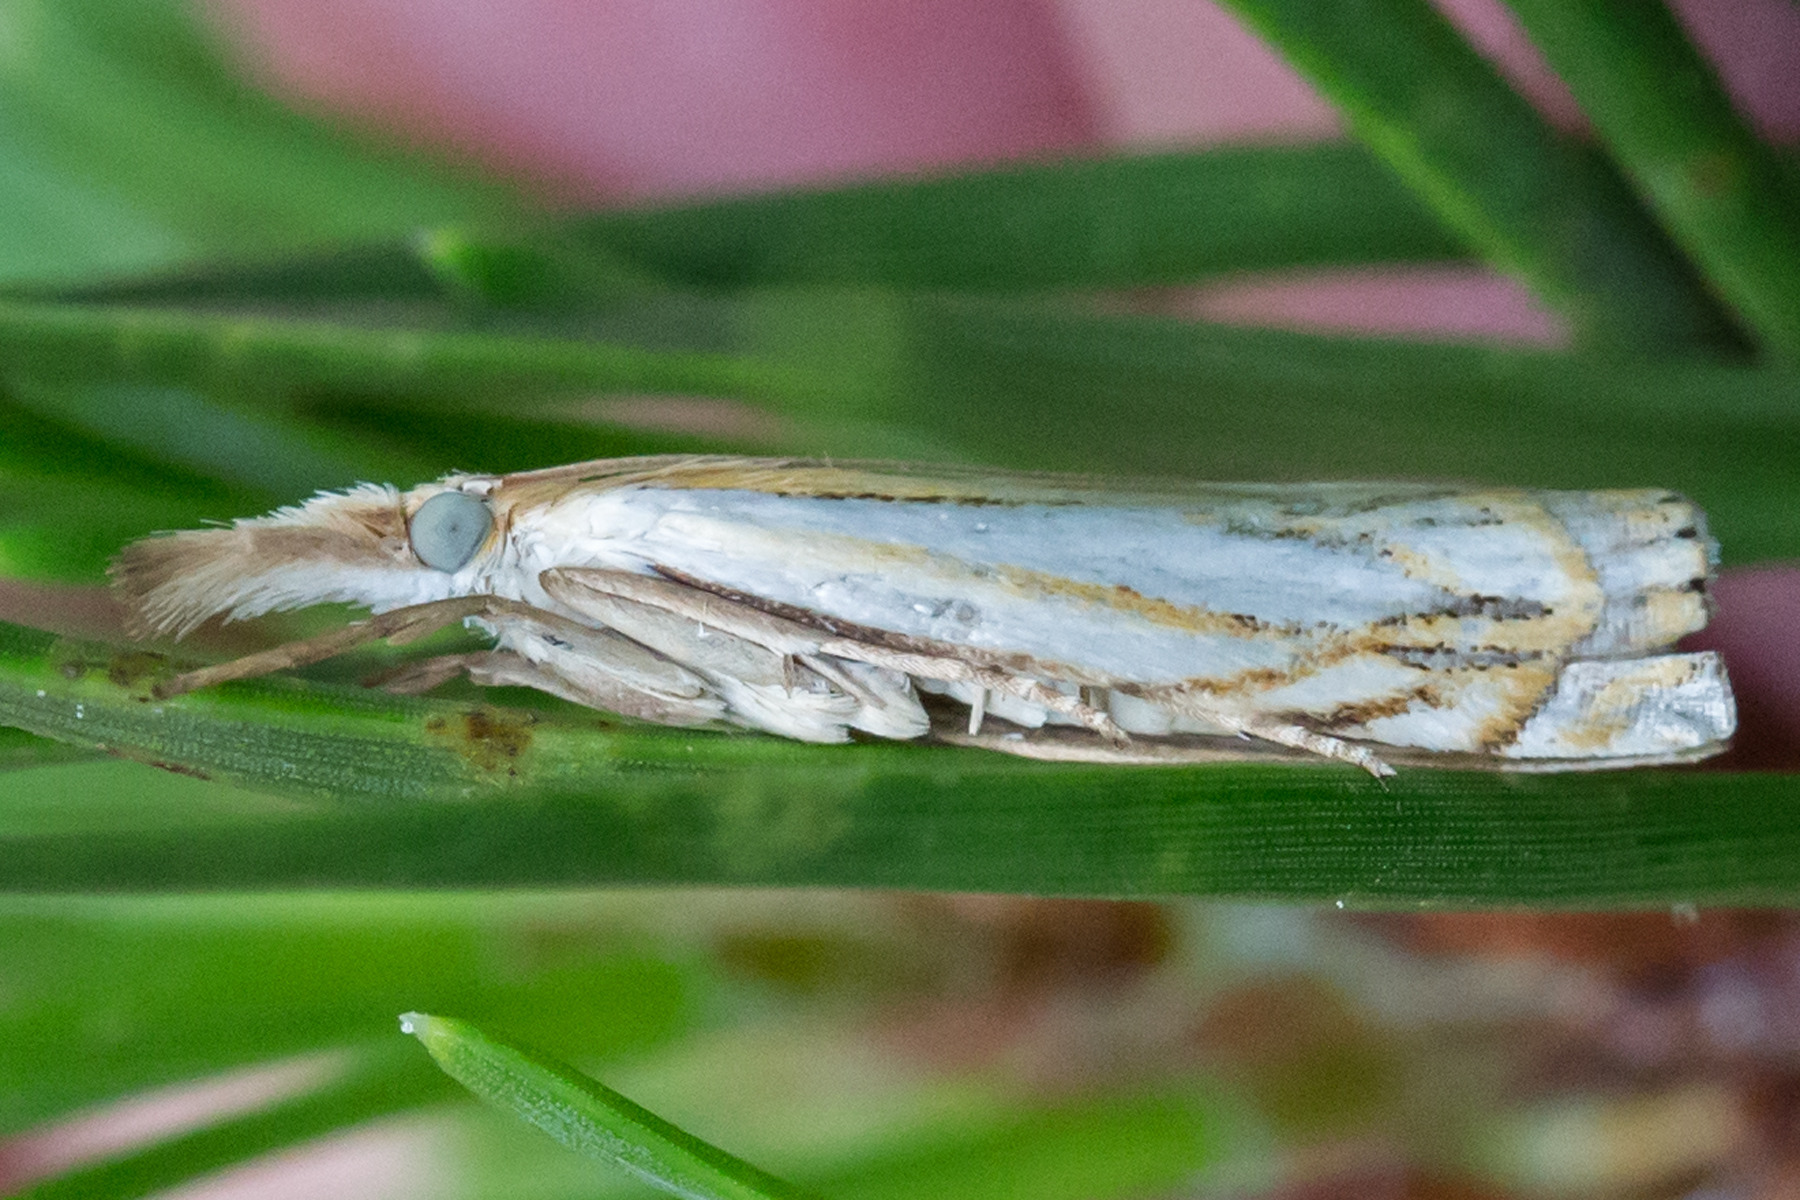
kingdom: Animalia
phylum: Arthropoda
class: Insecta
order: Lepidoptera
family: Crambidae
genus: Crambus
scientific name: Crambus saltuellus
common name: Pasture grass-veneer
